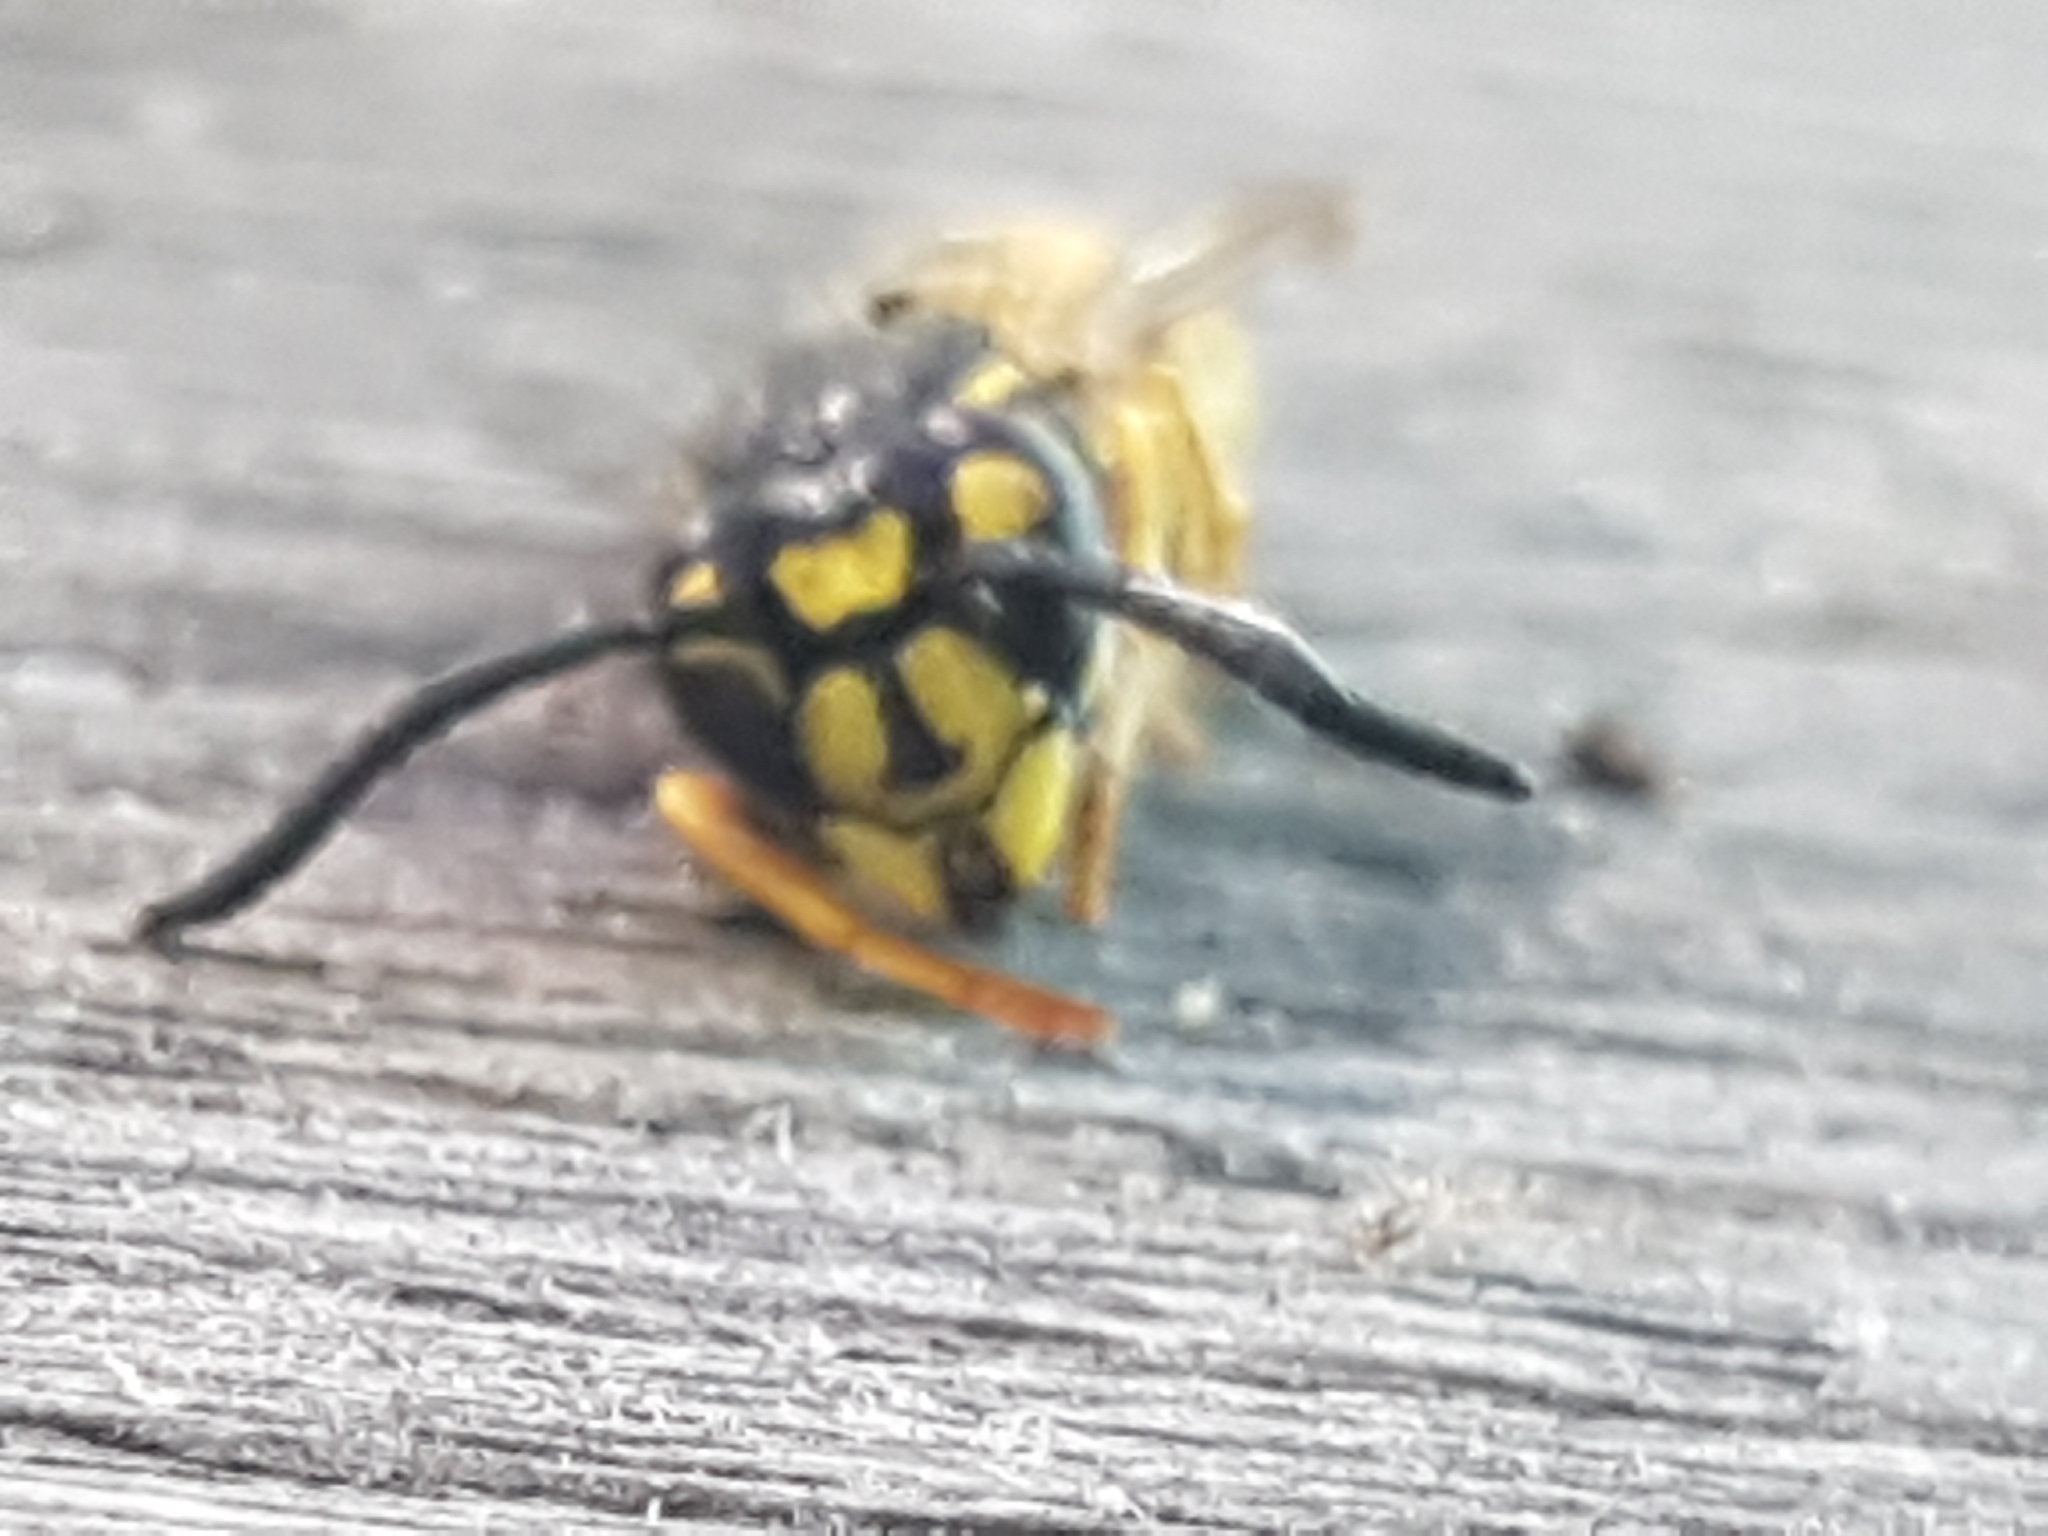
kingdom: Animalia
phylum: Arthropoda
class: Insecta
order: Hymenoptera
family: Vespidae
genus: Vespula
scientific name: Vespula vulgaris
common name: Common wasp
